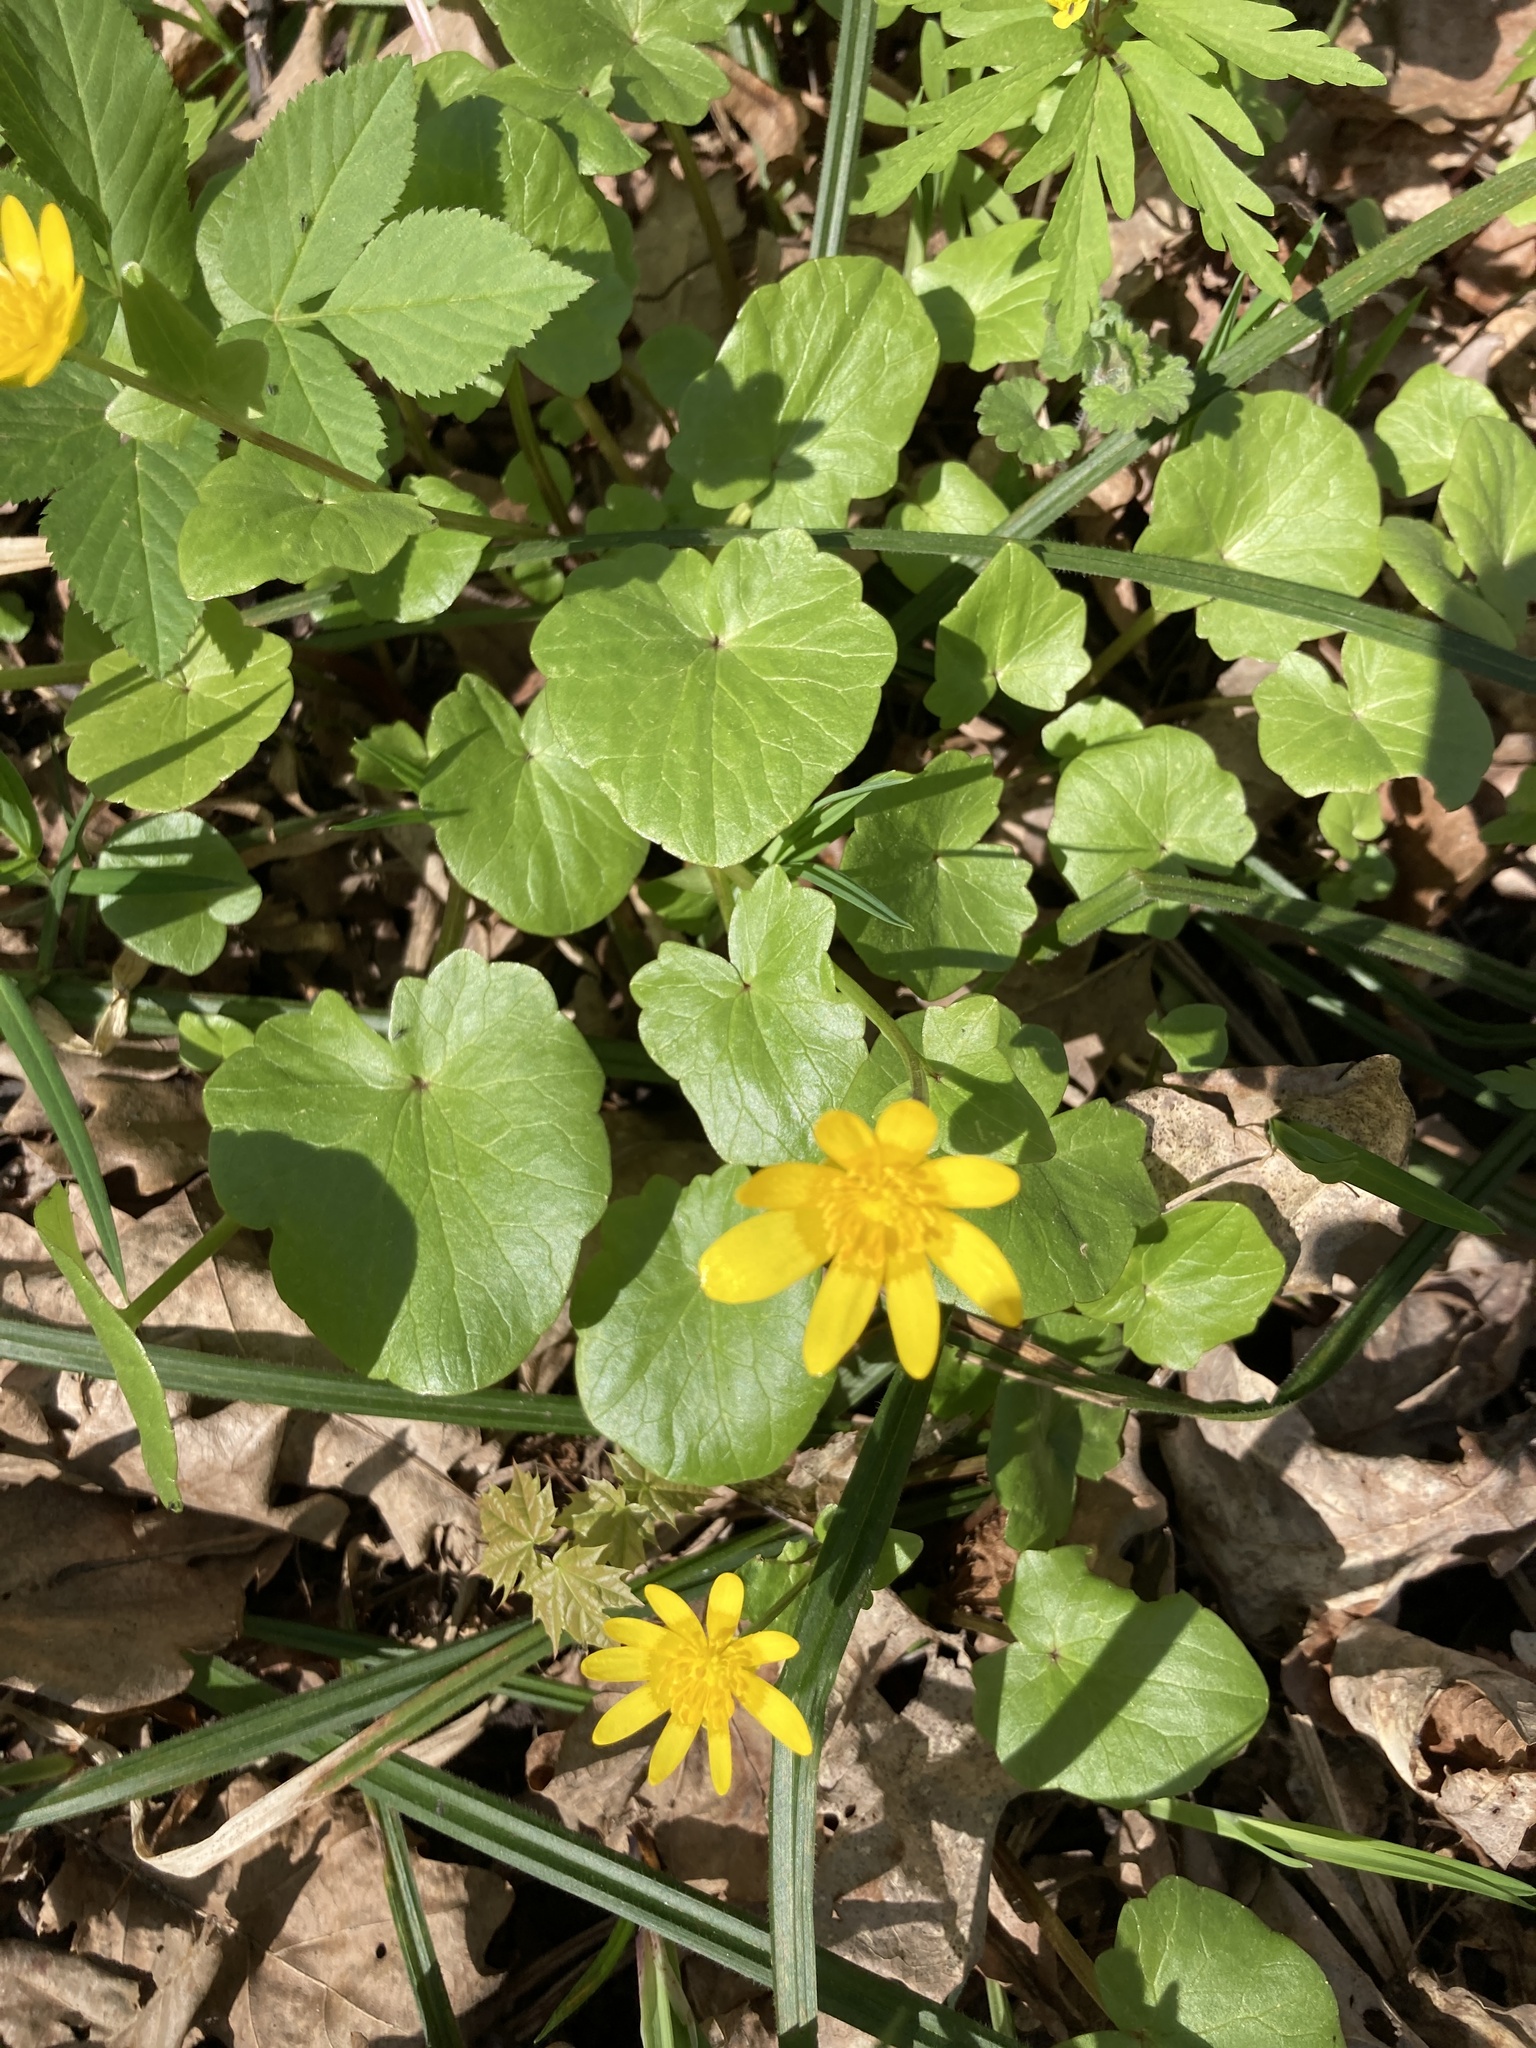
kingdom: Plantae
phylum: Tracheophyta
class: Magnoliopsida
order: Ranunculales
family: Ranunculaceae
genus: Ficaria
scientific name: Ficaria verna
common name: Lesser celandine
